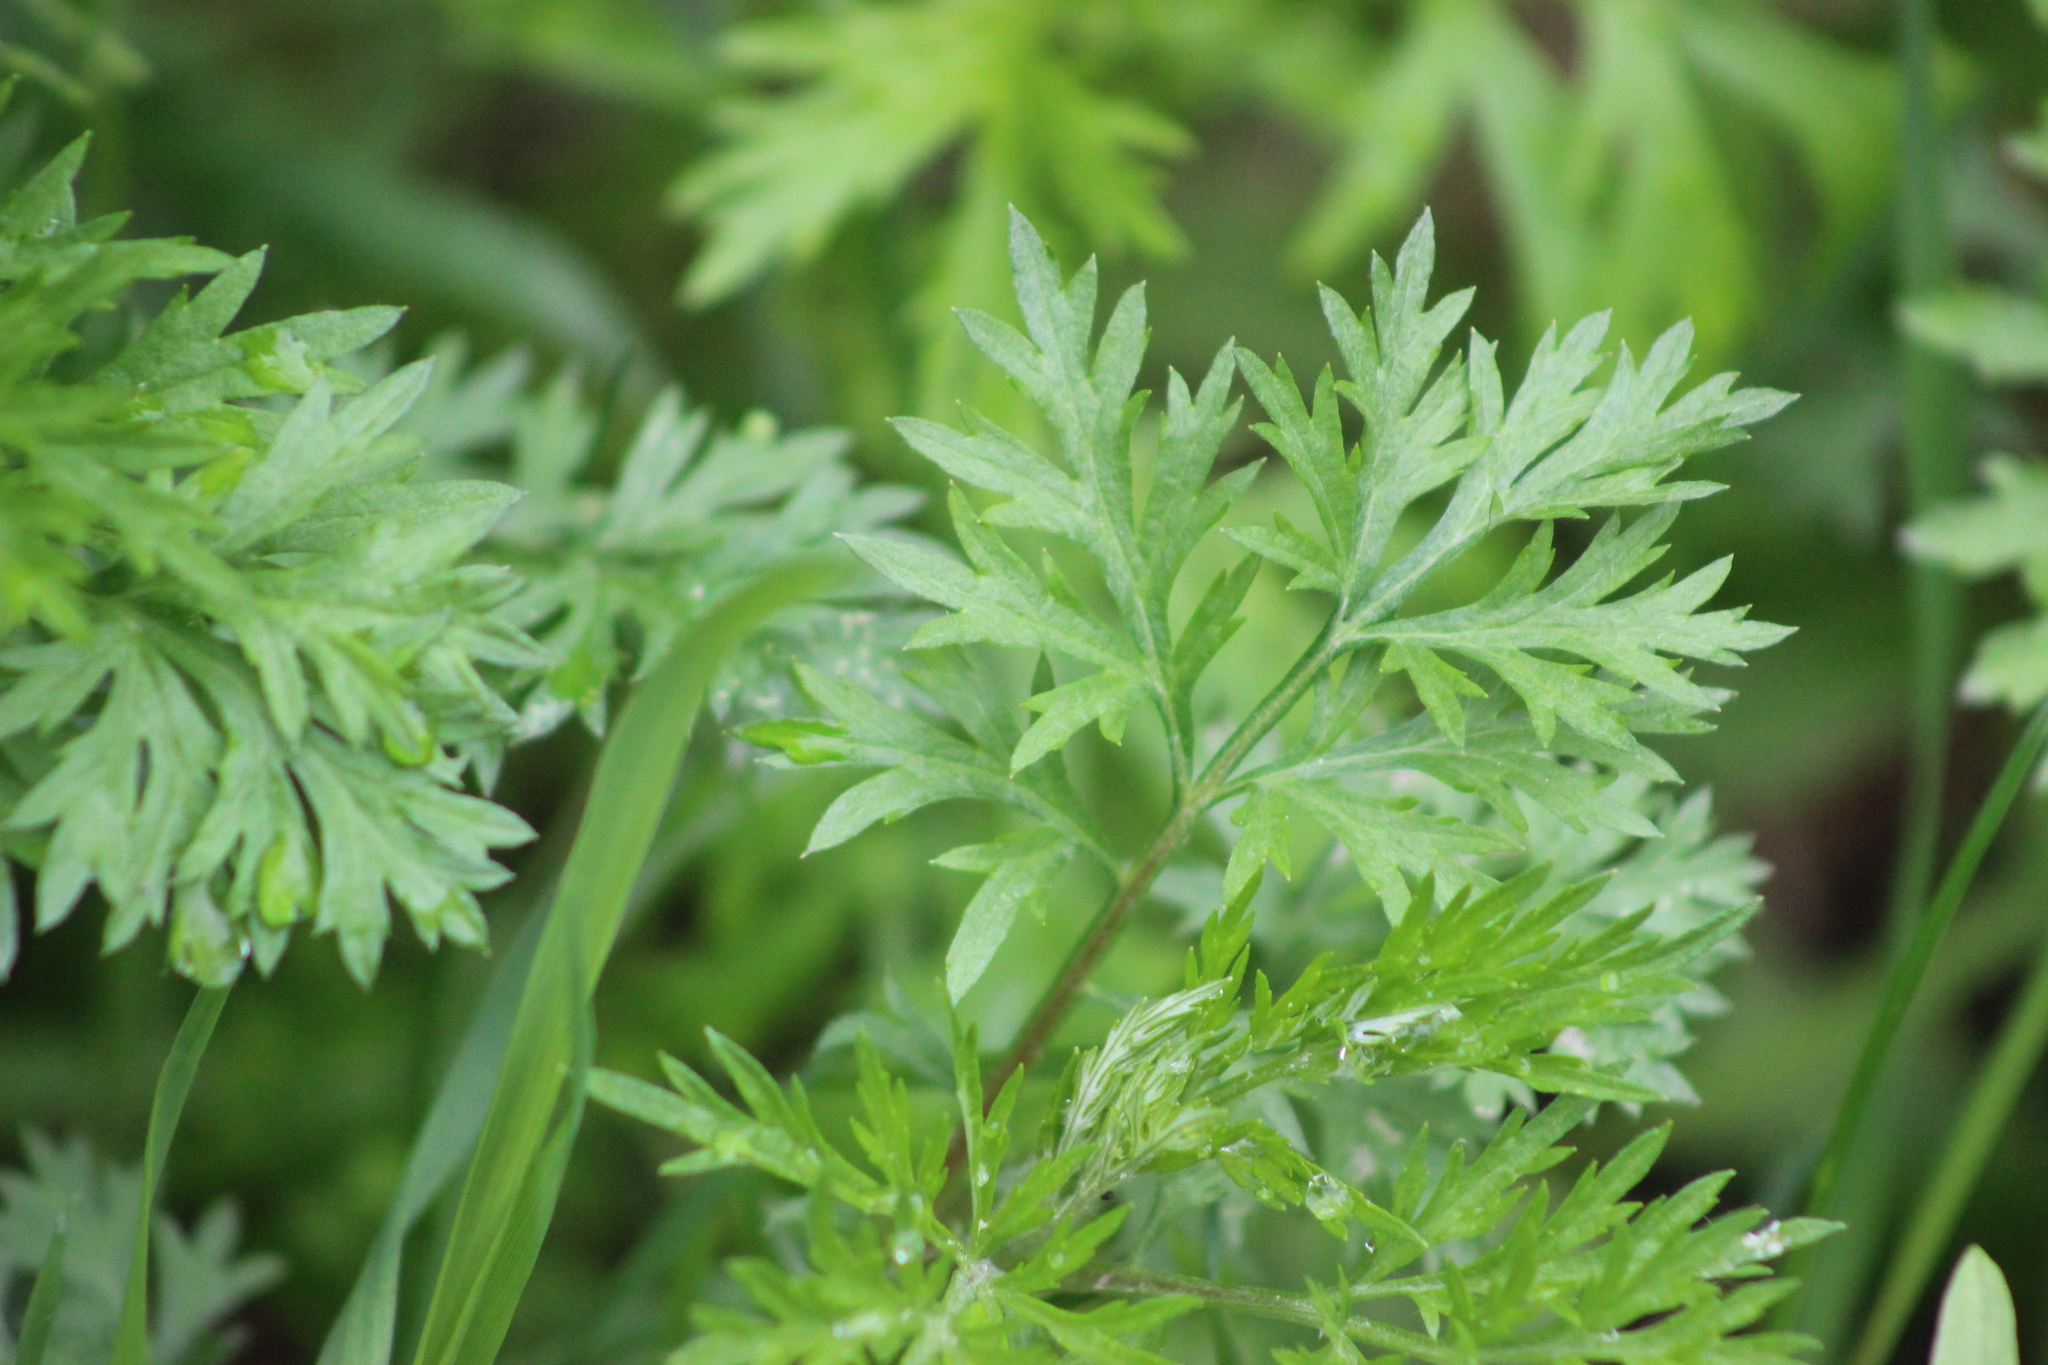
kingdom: Plantae
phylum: Tracheophyta
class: Magnoliopsida
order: Asterales
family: Asteraceae
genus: Artemisia
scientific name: Artemisia vulgaris
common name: Mugwort
